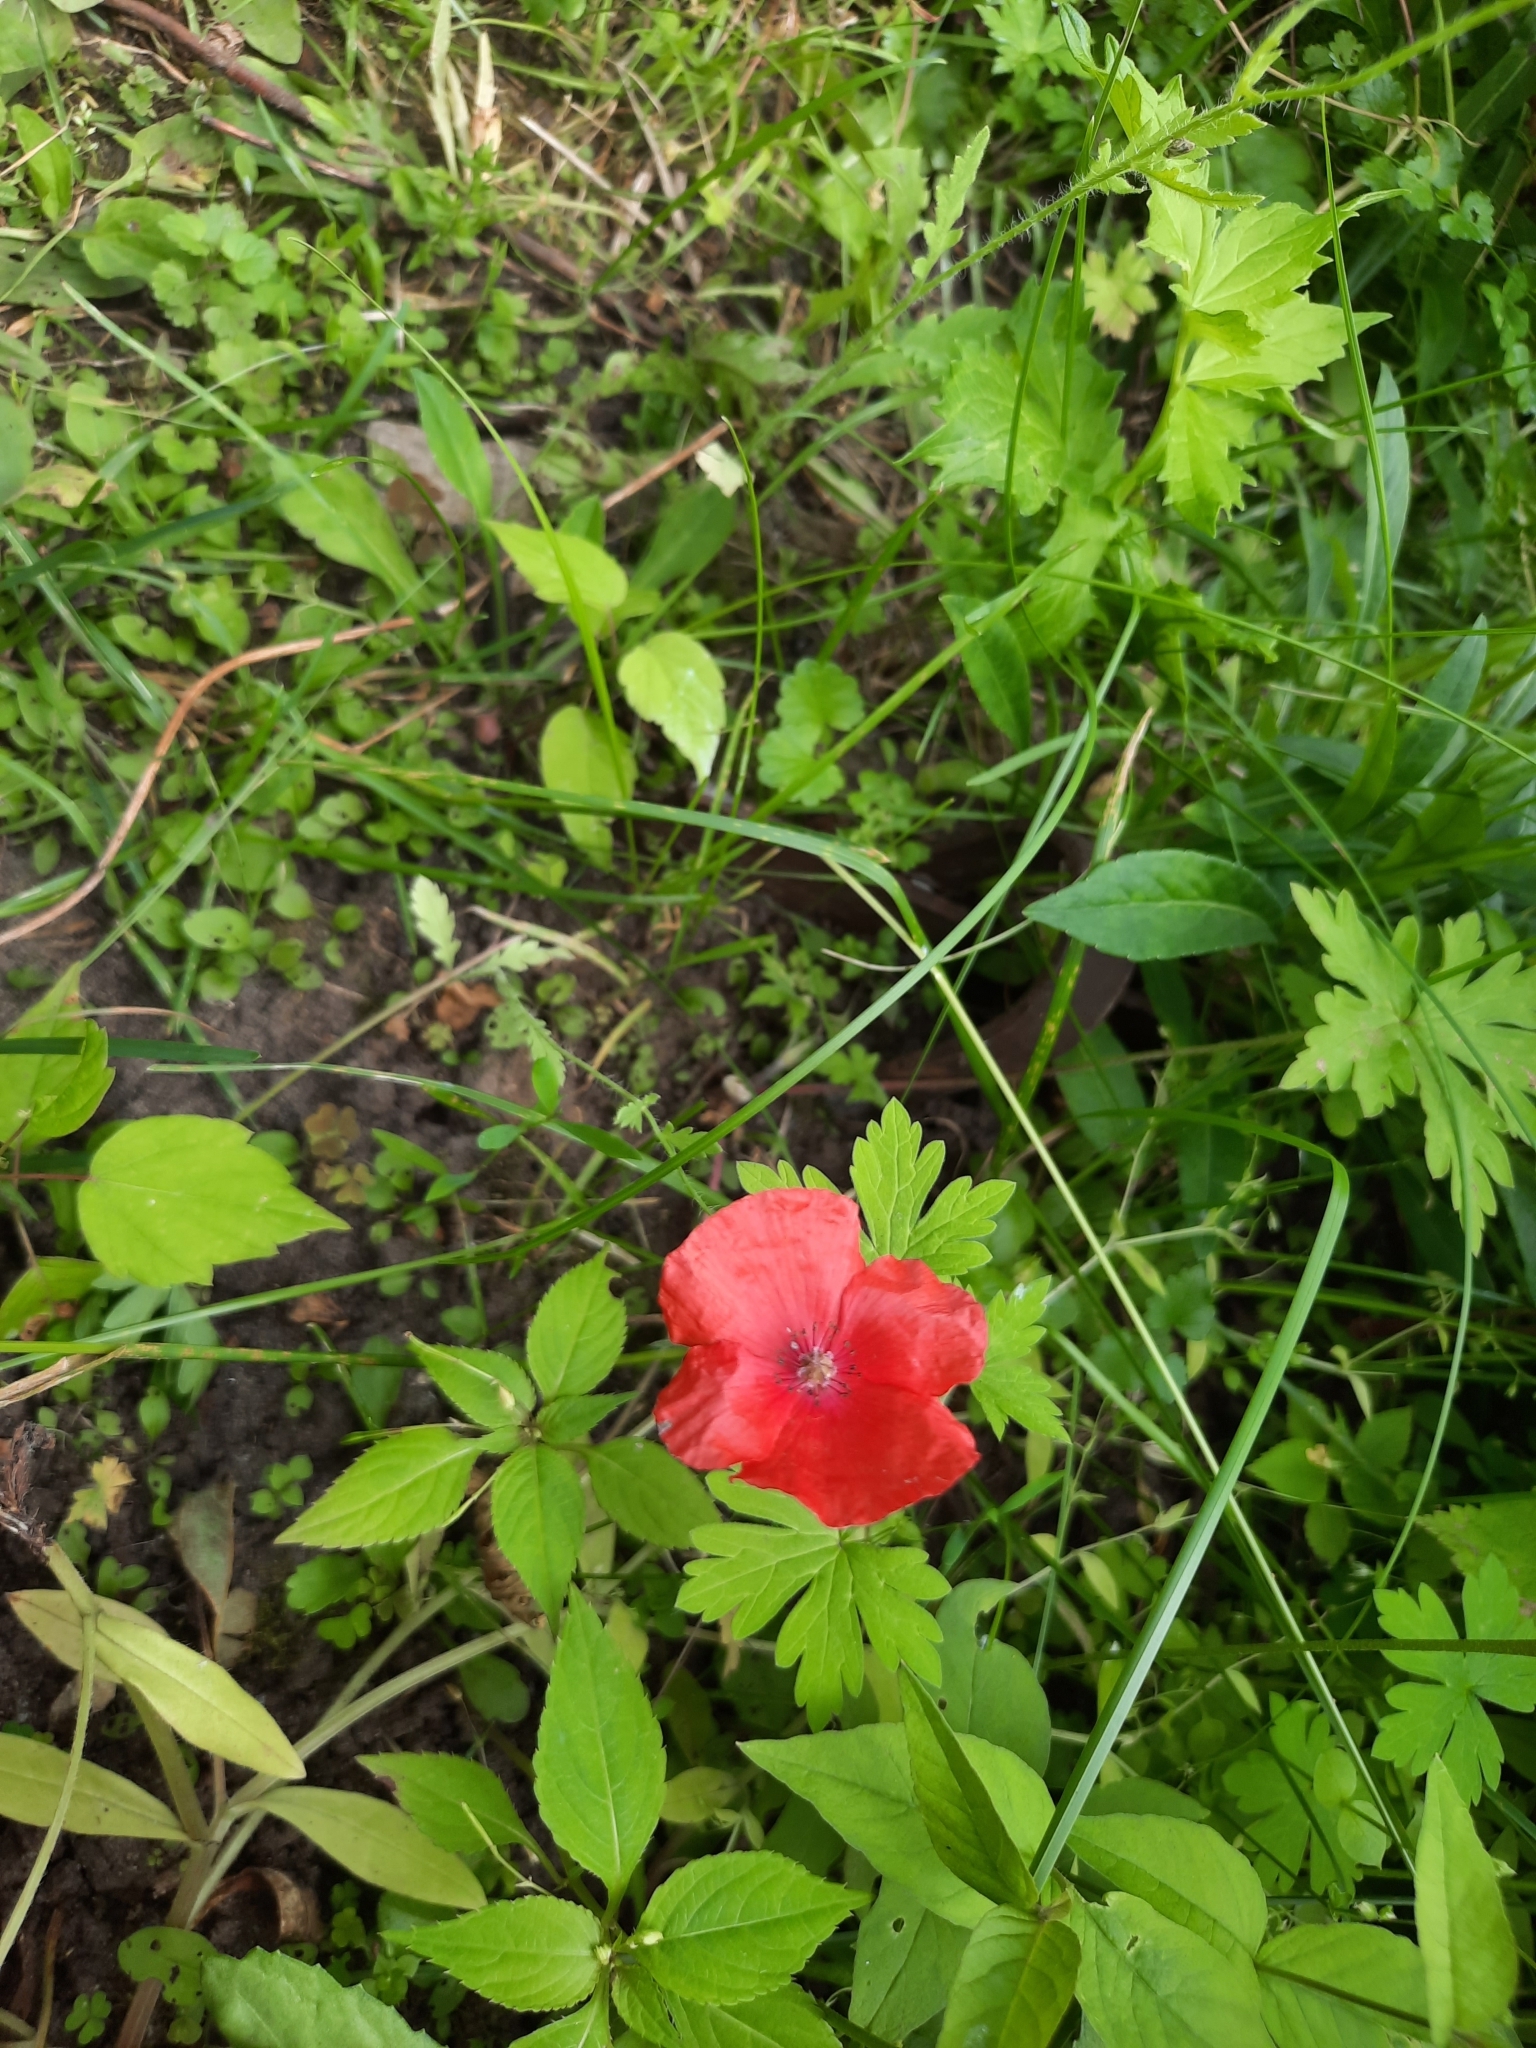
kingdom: Plantae
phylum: Tracheophyta
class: Magnoliopsida
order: Ranunculales
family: Papaveraceae
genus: Papaver
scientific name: Papaver rhoeas
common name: Corn poppy
